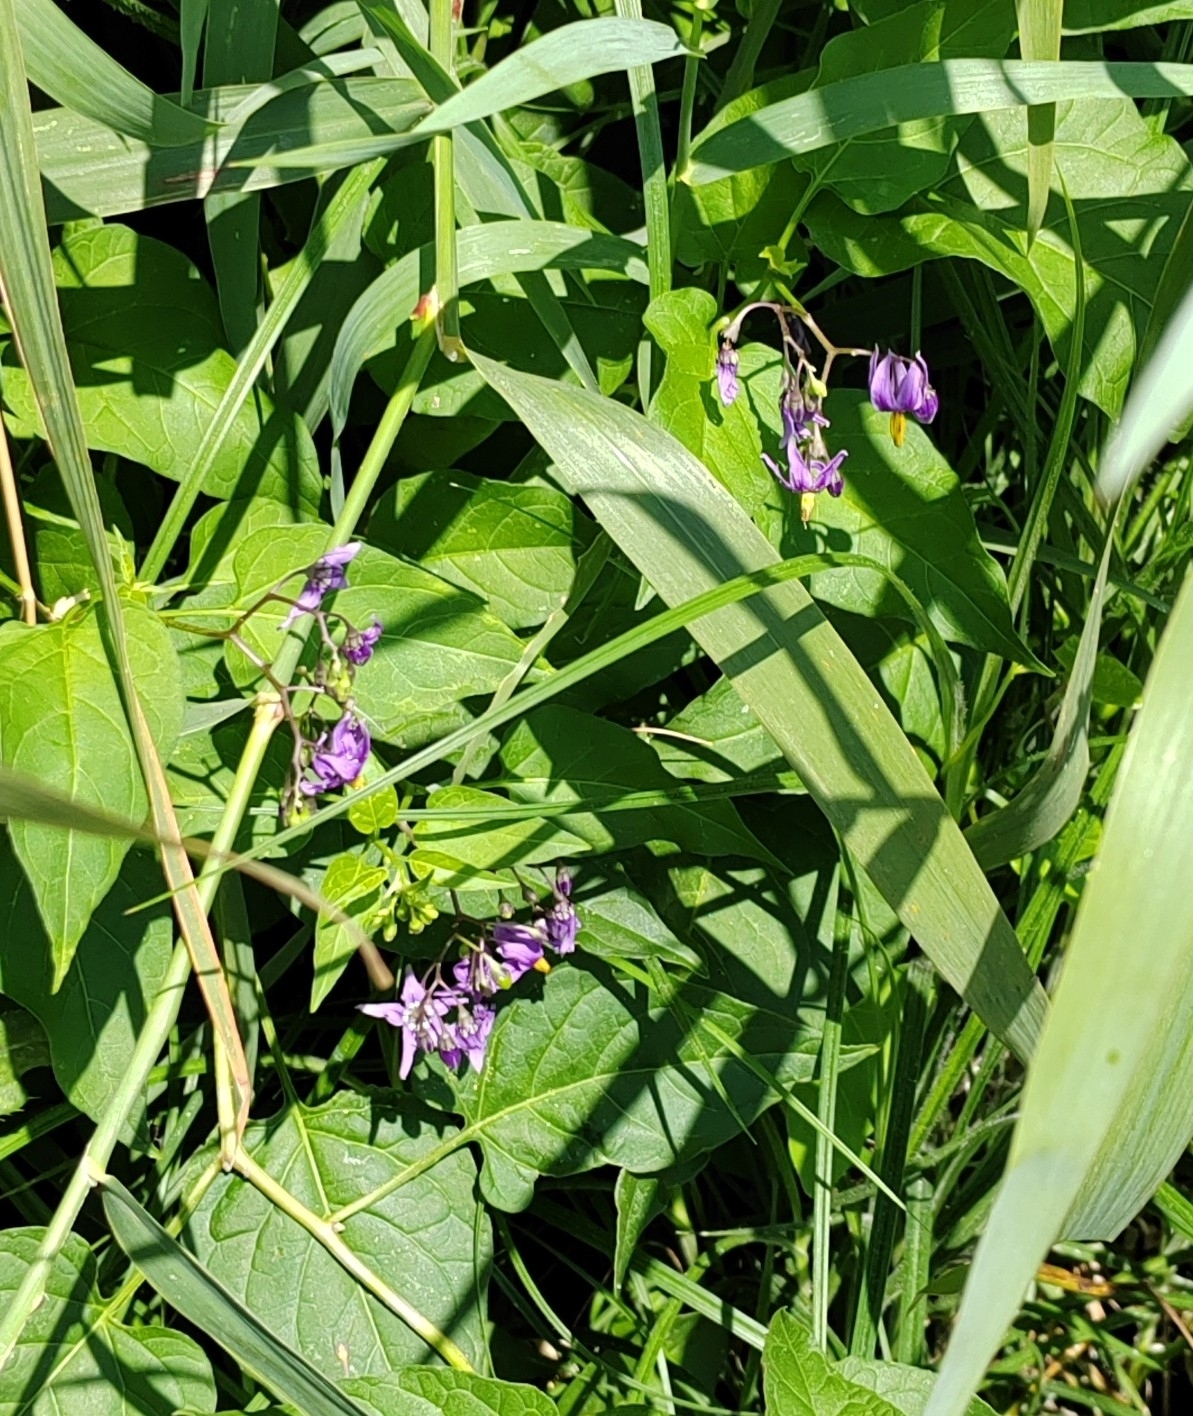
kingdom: Plantae
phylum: Tracheophyta
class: Magnoliopsida
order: Solanales
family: Solanaceae
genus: Solanum
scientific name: Solanum dulcamara
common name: Climbing nightshade
